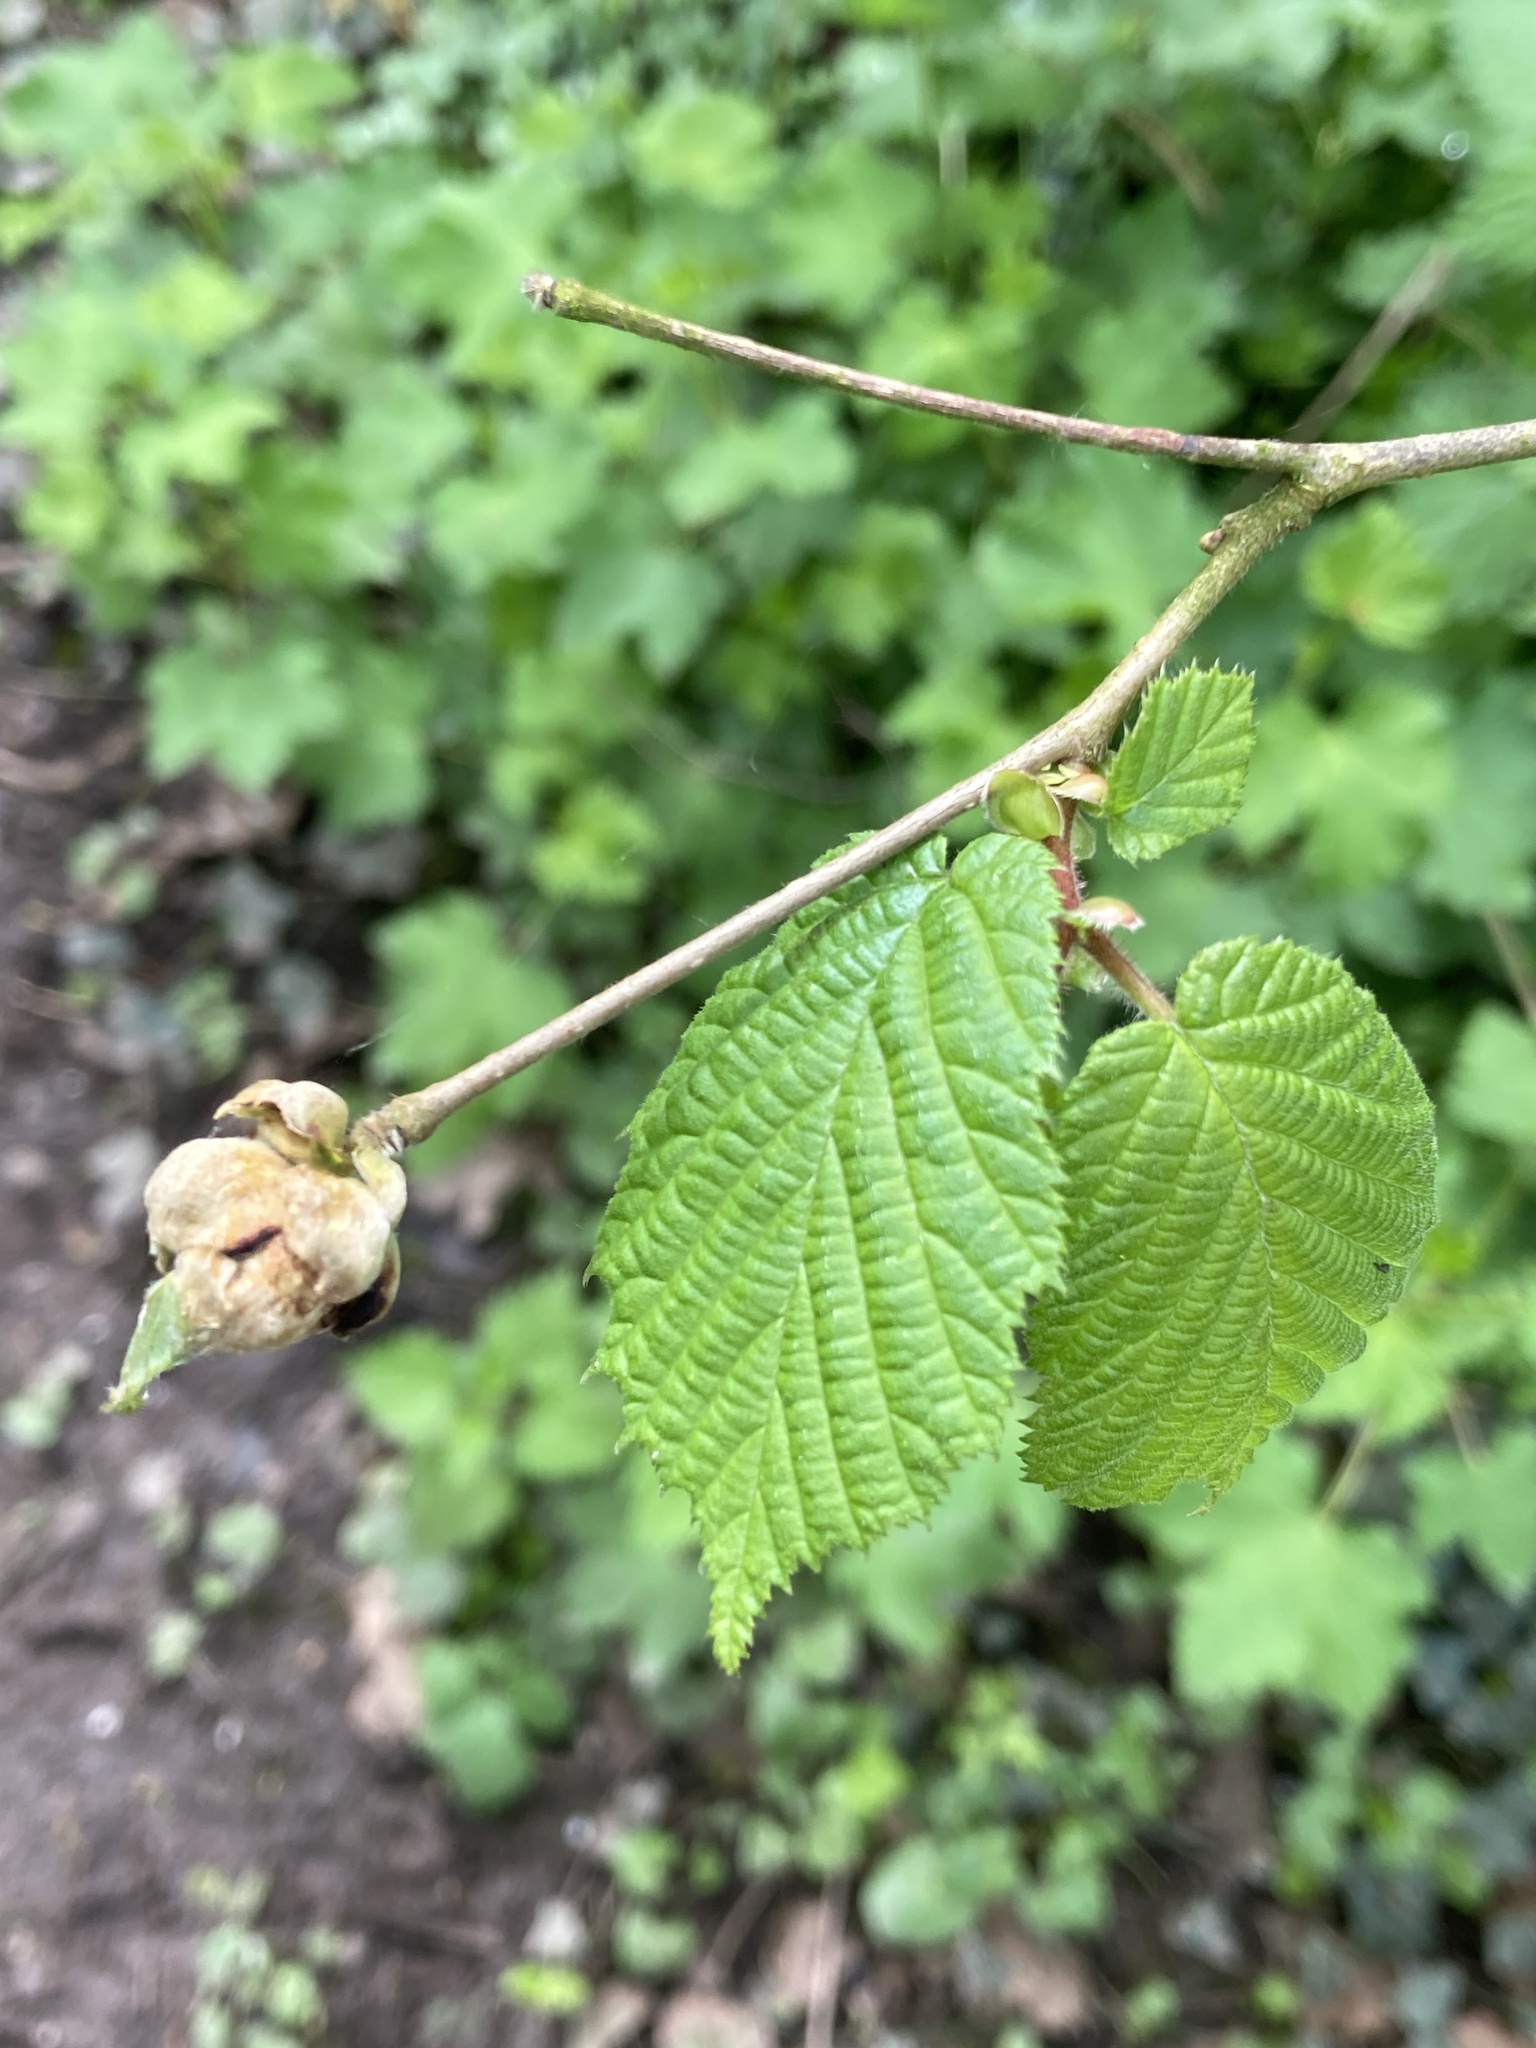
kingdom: Plantae
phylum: Tracheophyta
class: Magnoliopsida
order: Fagales
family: Betulaceae
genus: Corylus
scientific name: Corylus avellana
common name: European hazel
